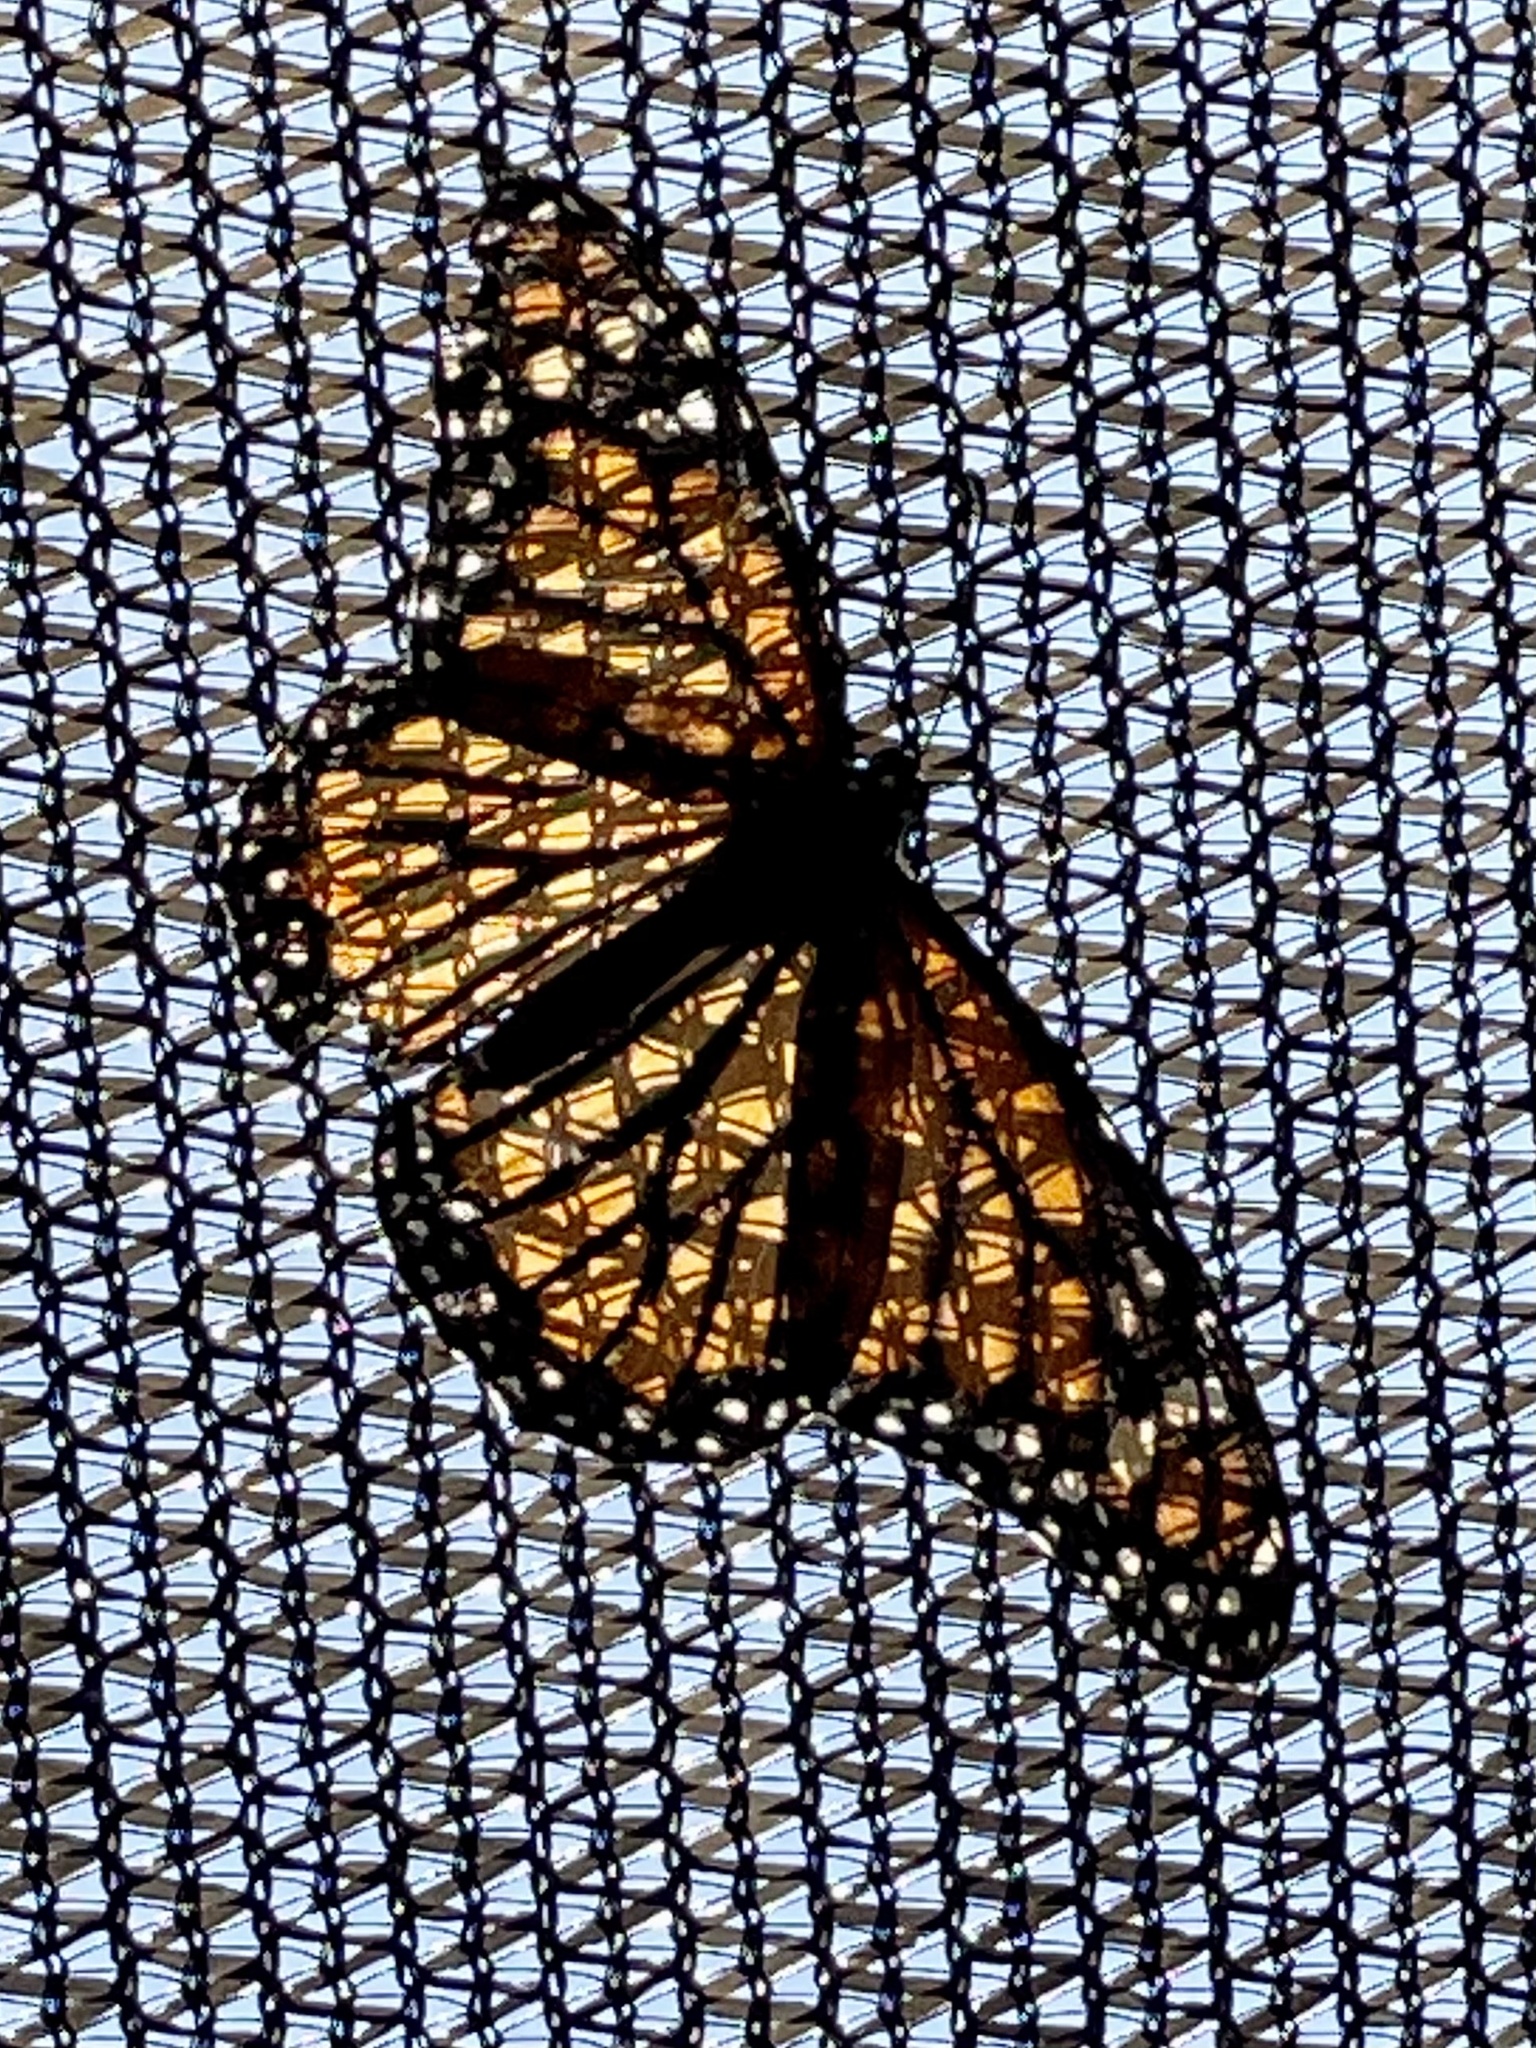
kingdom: Animalia
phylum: Arthropoda
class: Insecta
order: Lepidoptera
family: Nymphalidae
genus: Danaus
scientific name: Danaus plexippus
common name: Monarch
